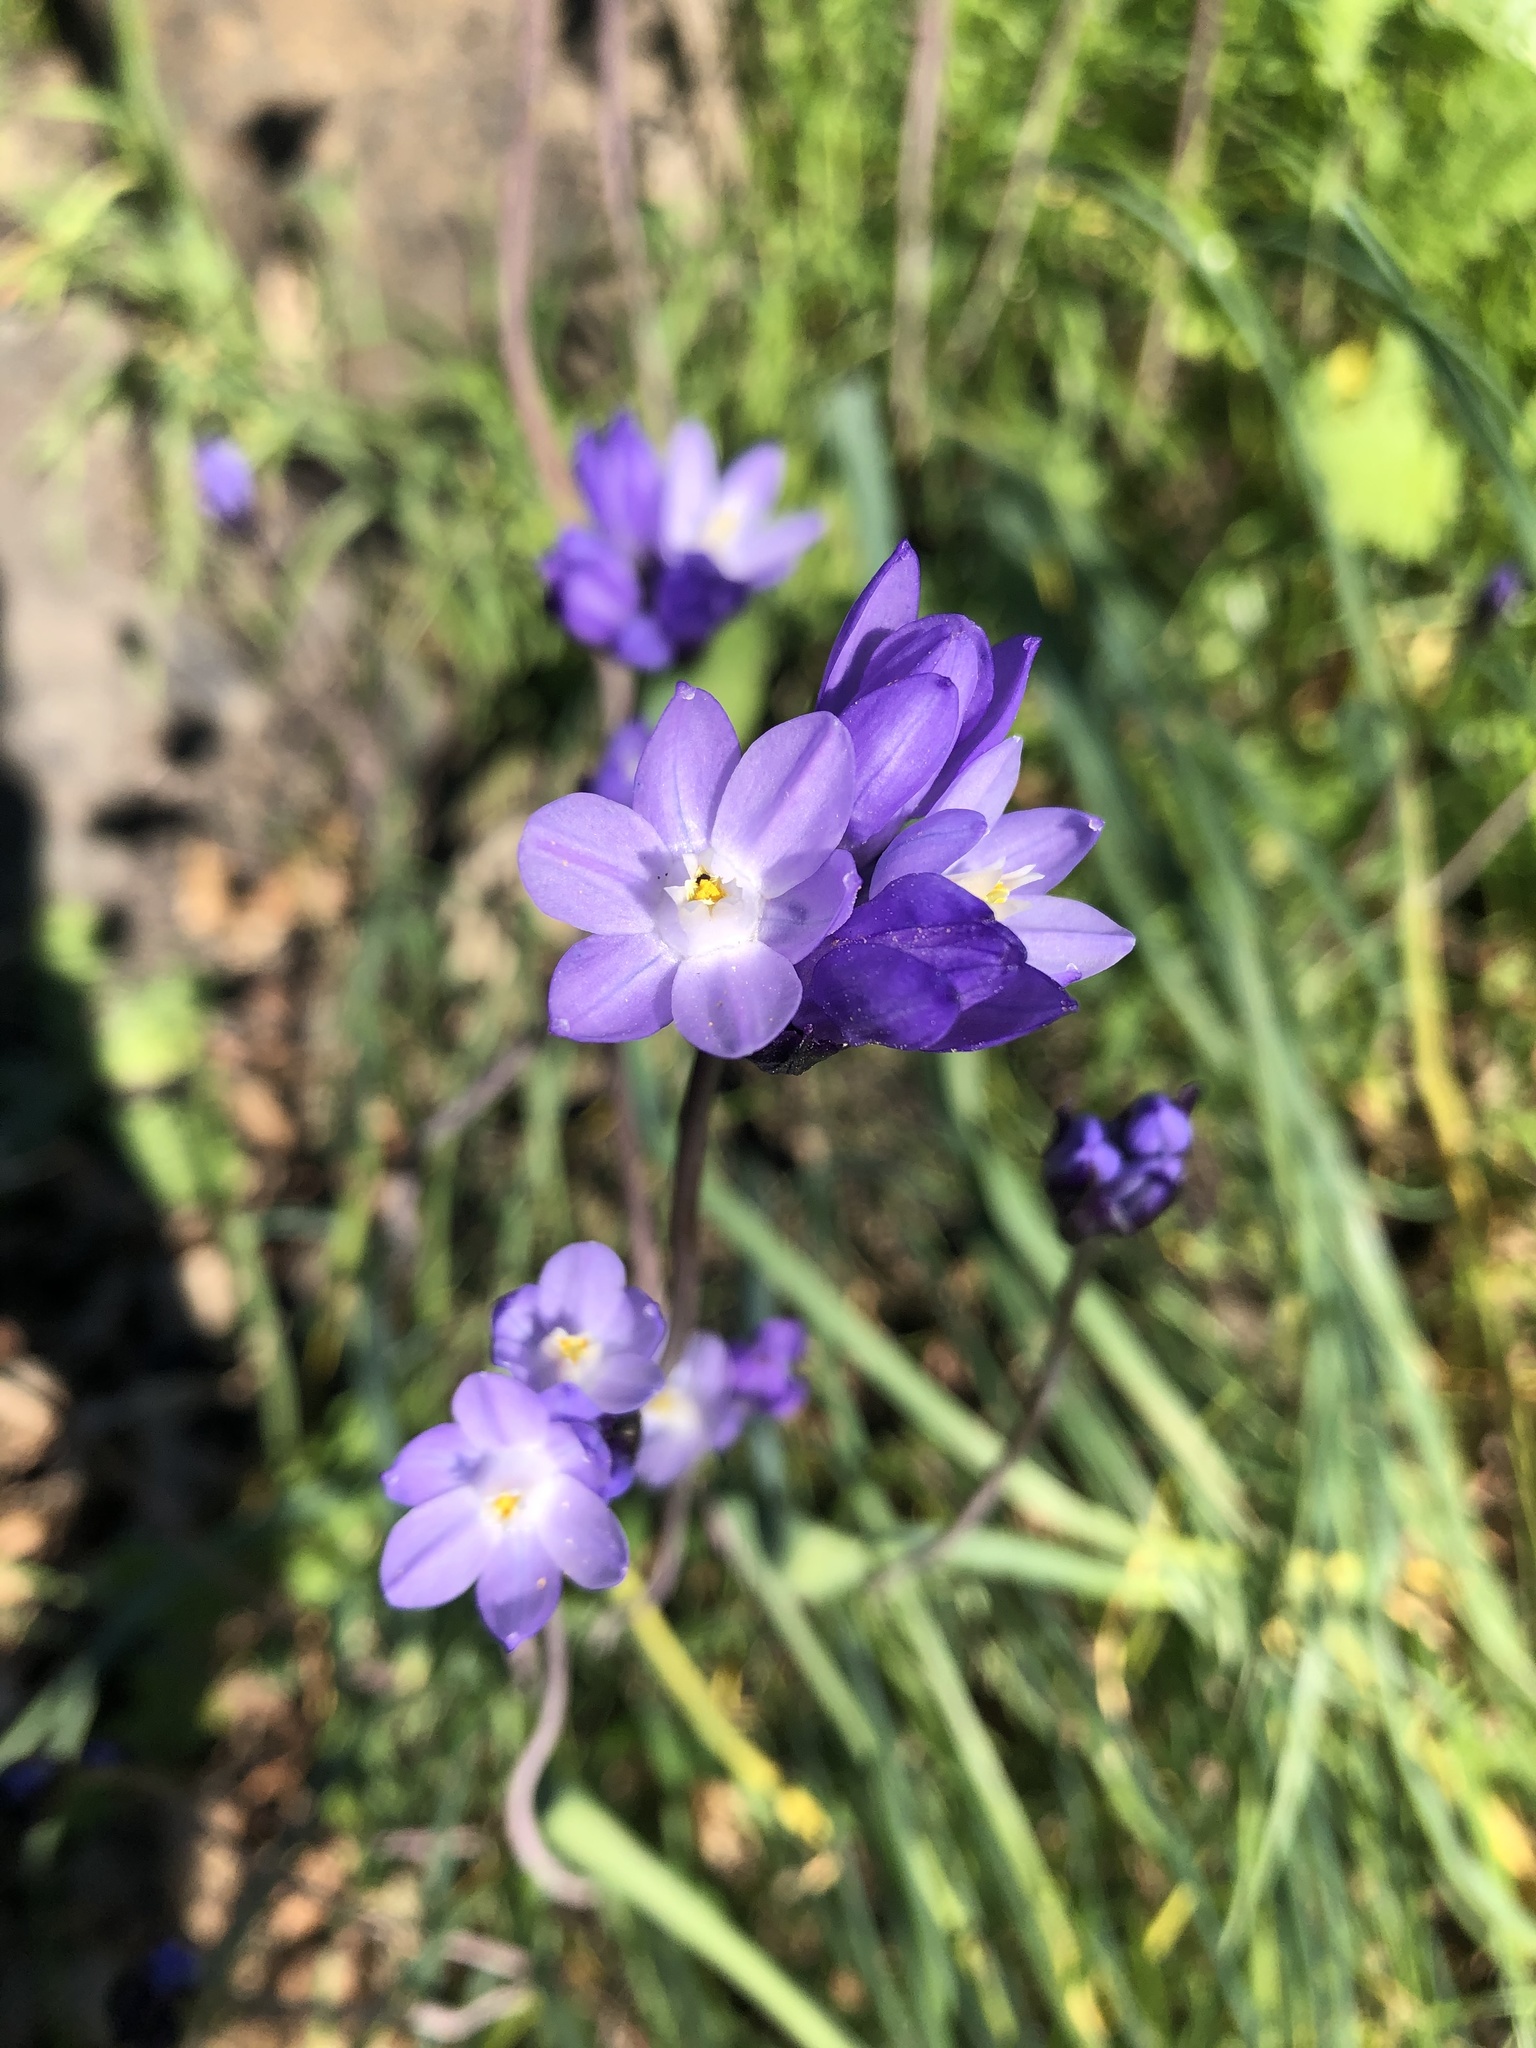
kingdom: Plantae
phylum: Tracheophyta
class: Liliopsida
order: Asparagales
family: Asparagaceae
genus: Dipterostemon
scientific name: Dipterostemon capitatus
